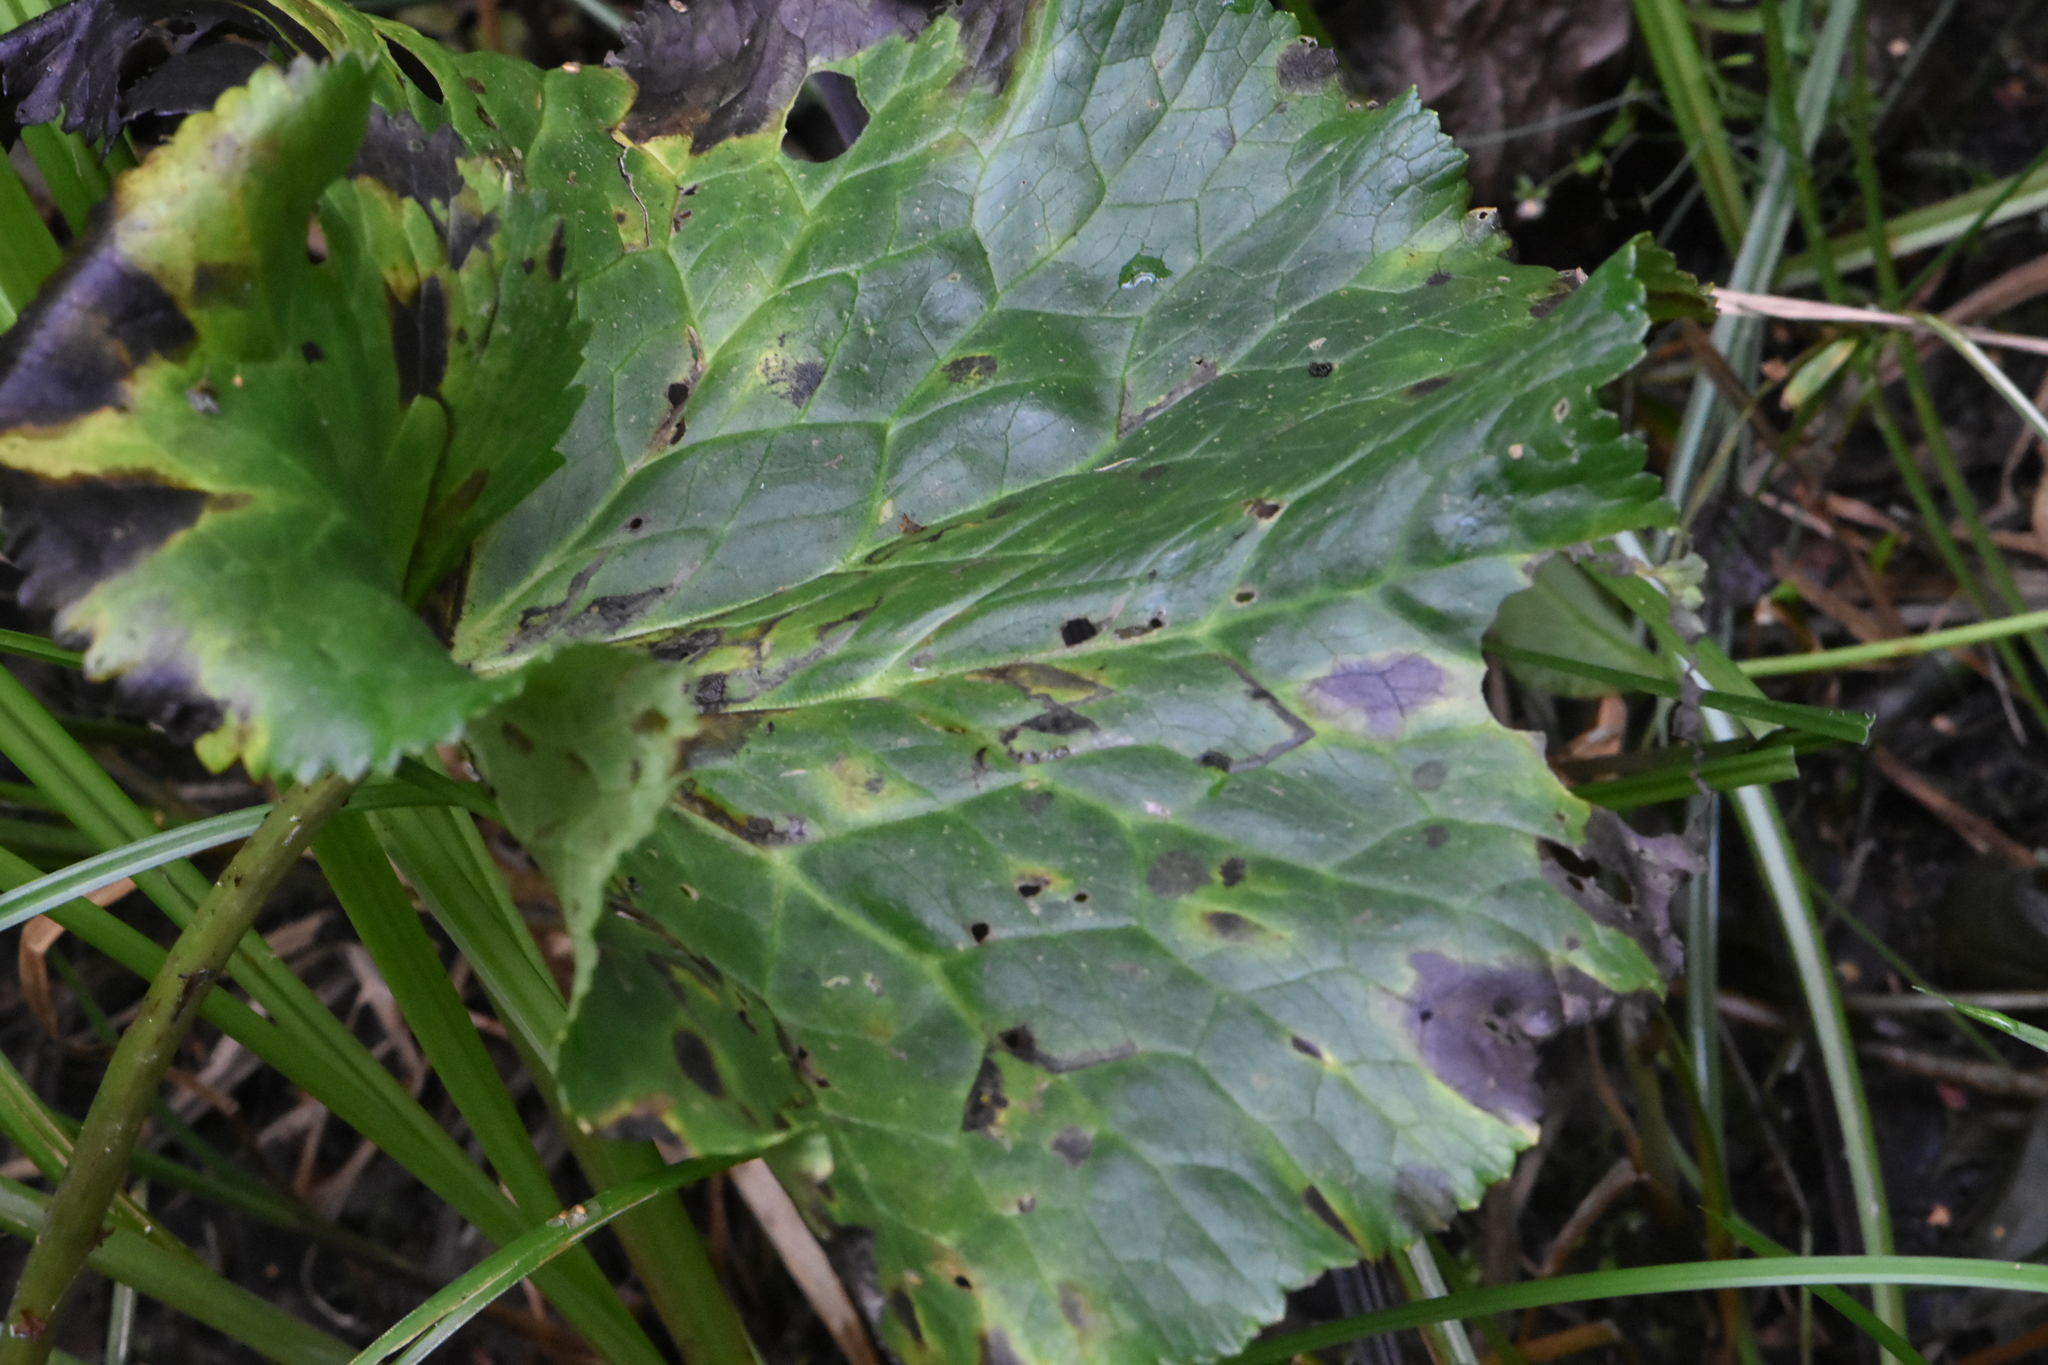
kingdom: Plantae
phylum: Tracheophyta
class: Magnoliopsida
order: Ranunculales
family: Ranunculaceae
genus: Caltha
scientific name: Caltha palustris
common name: Marsh marigold
